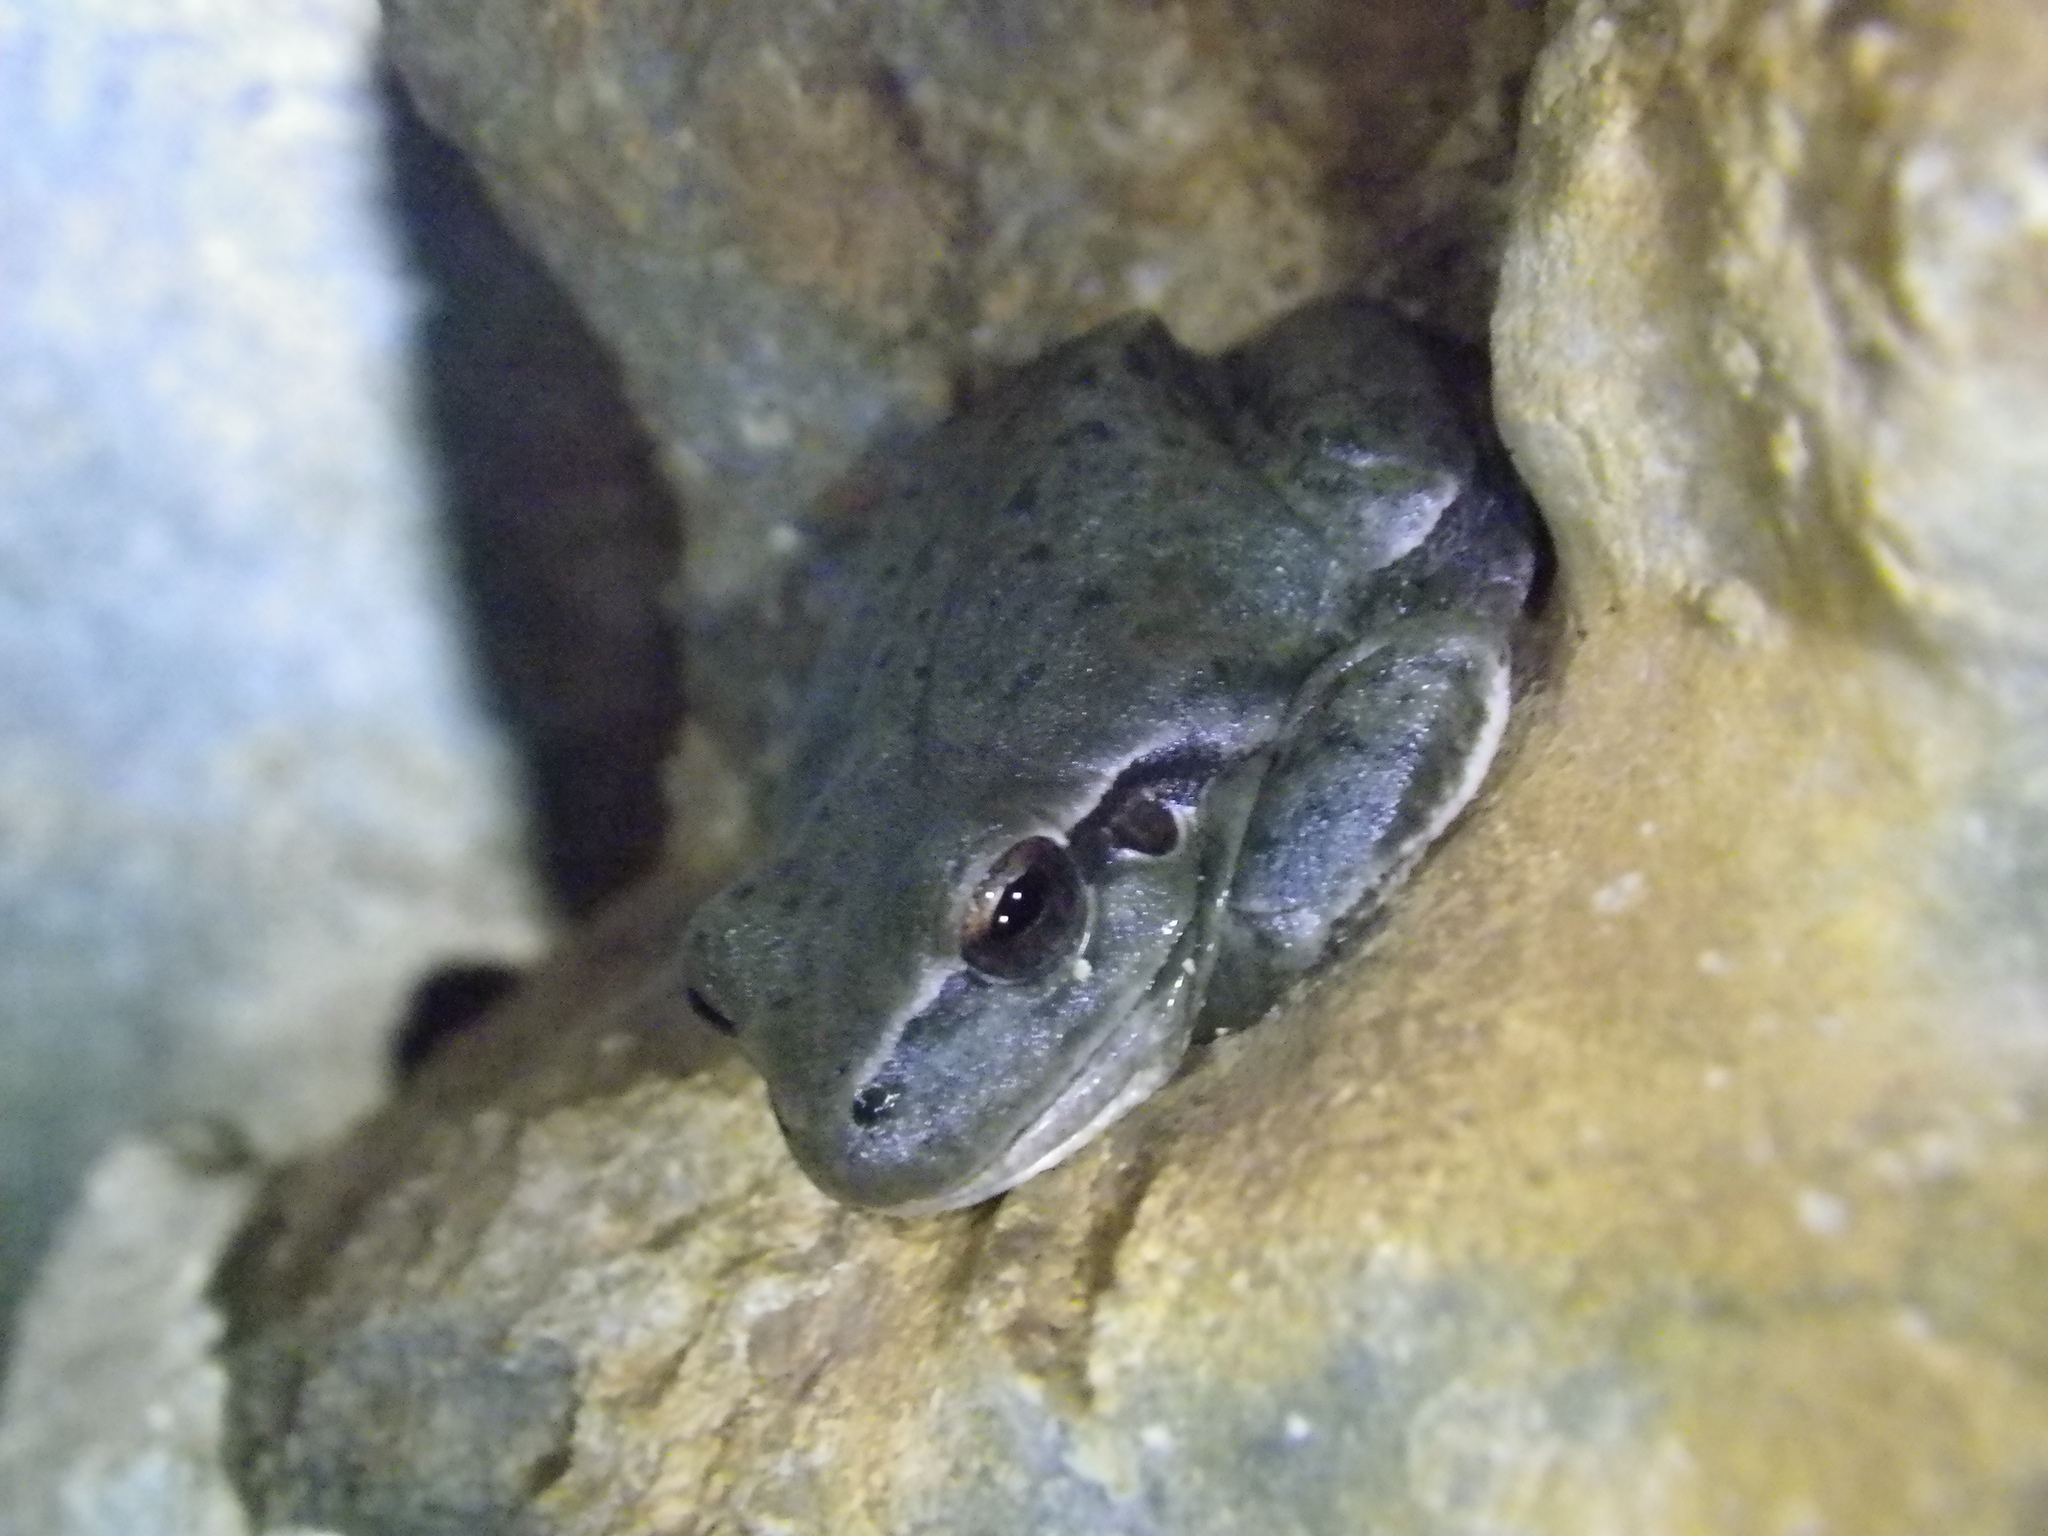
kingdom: Animalia
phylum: Chordata
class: Amphibia
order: Anura
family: Hylidae
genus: Hyla
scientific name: Hyla meridionalis
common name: Stripeless tree frog
